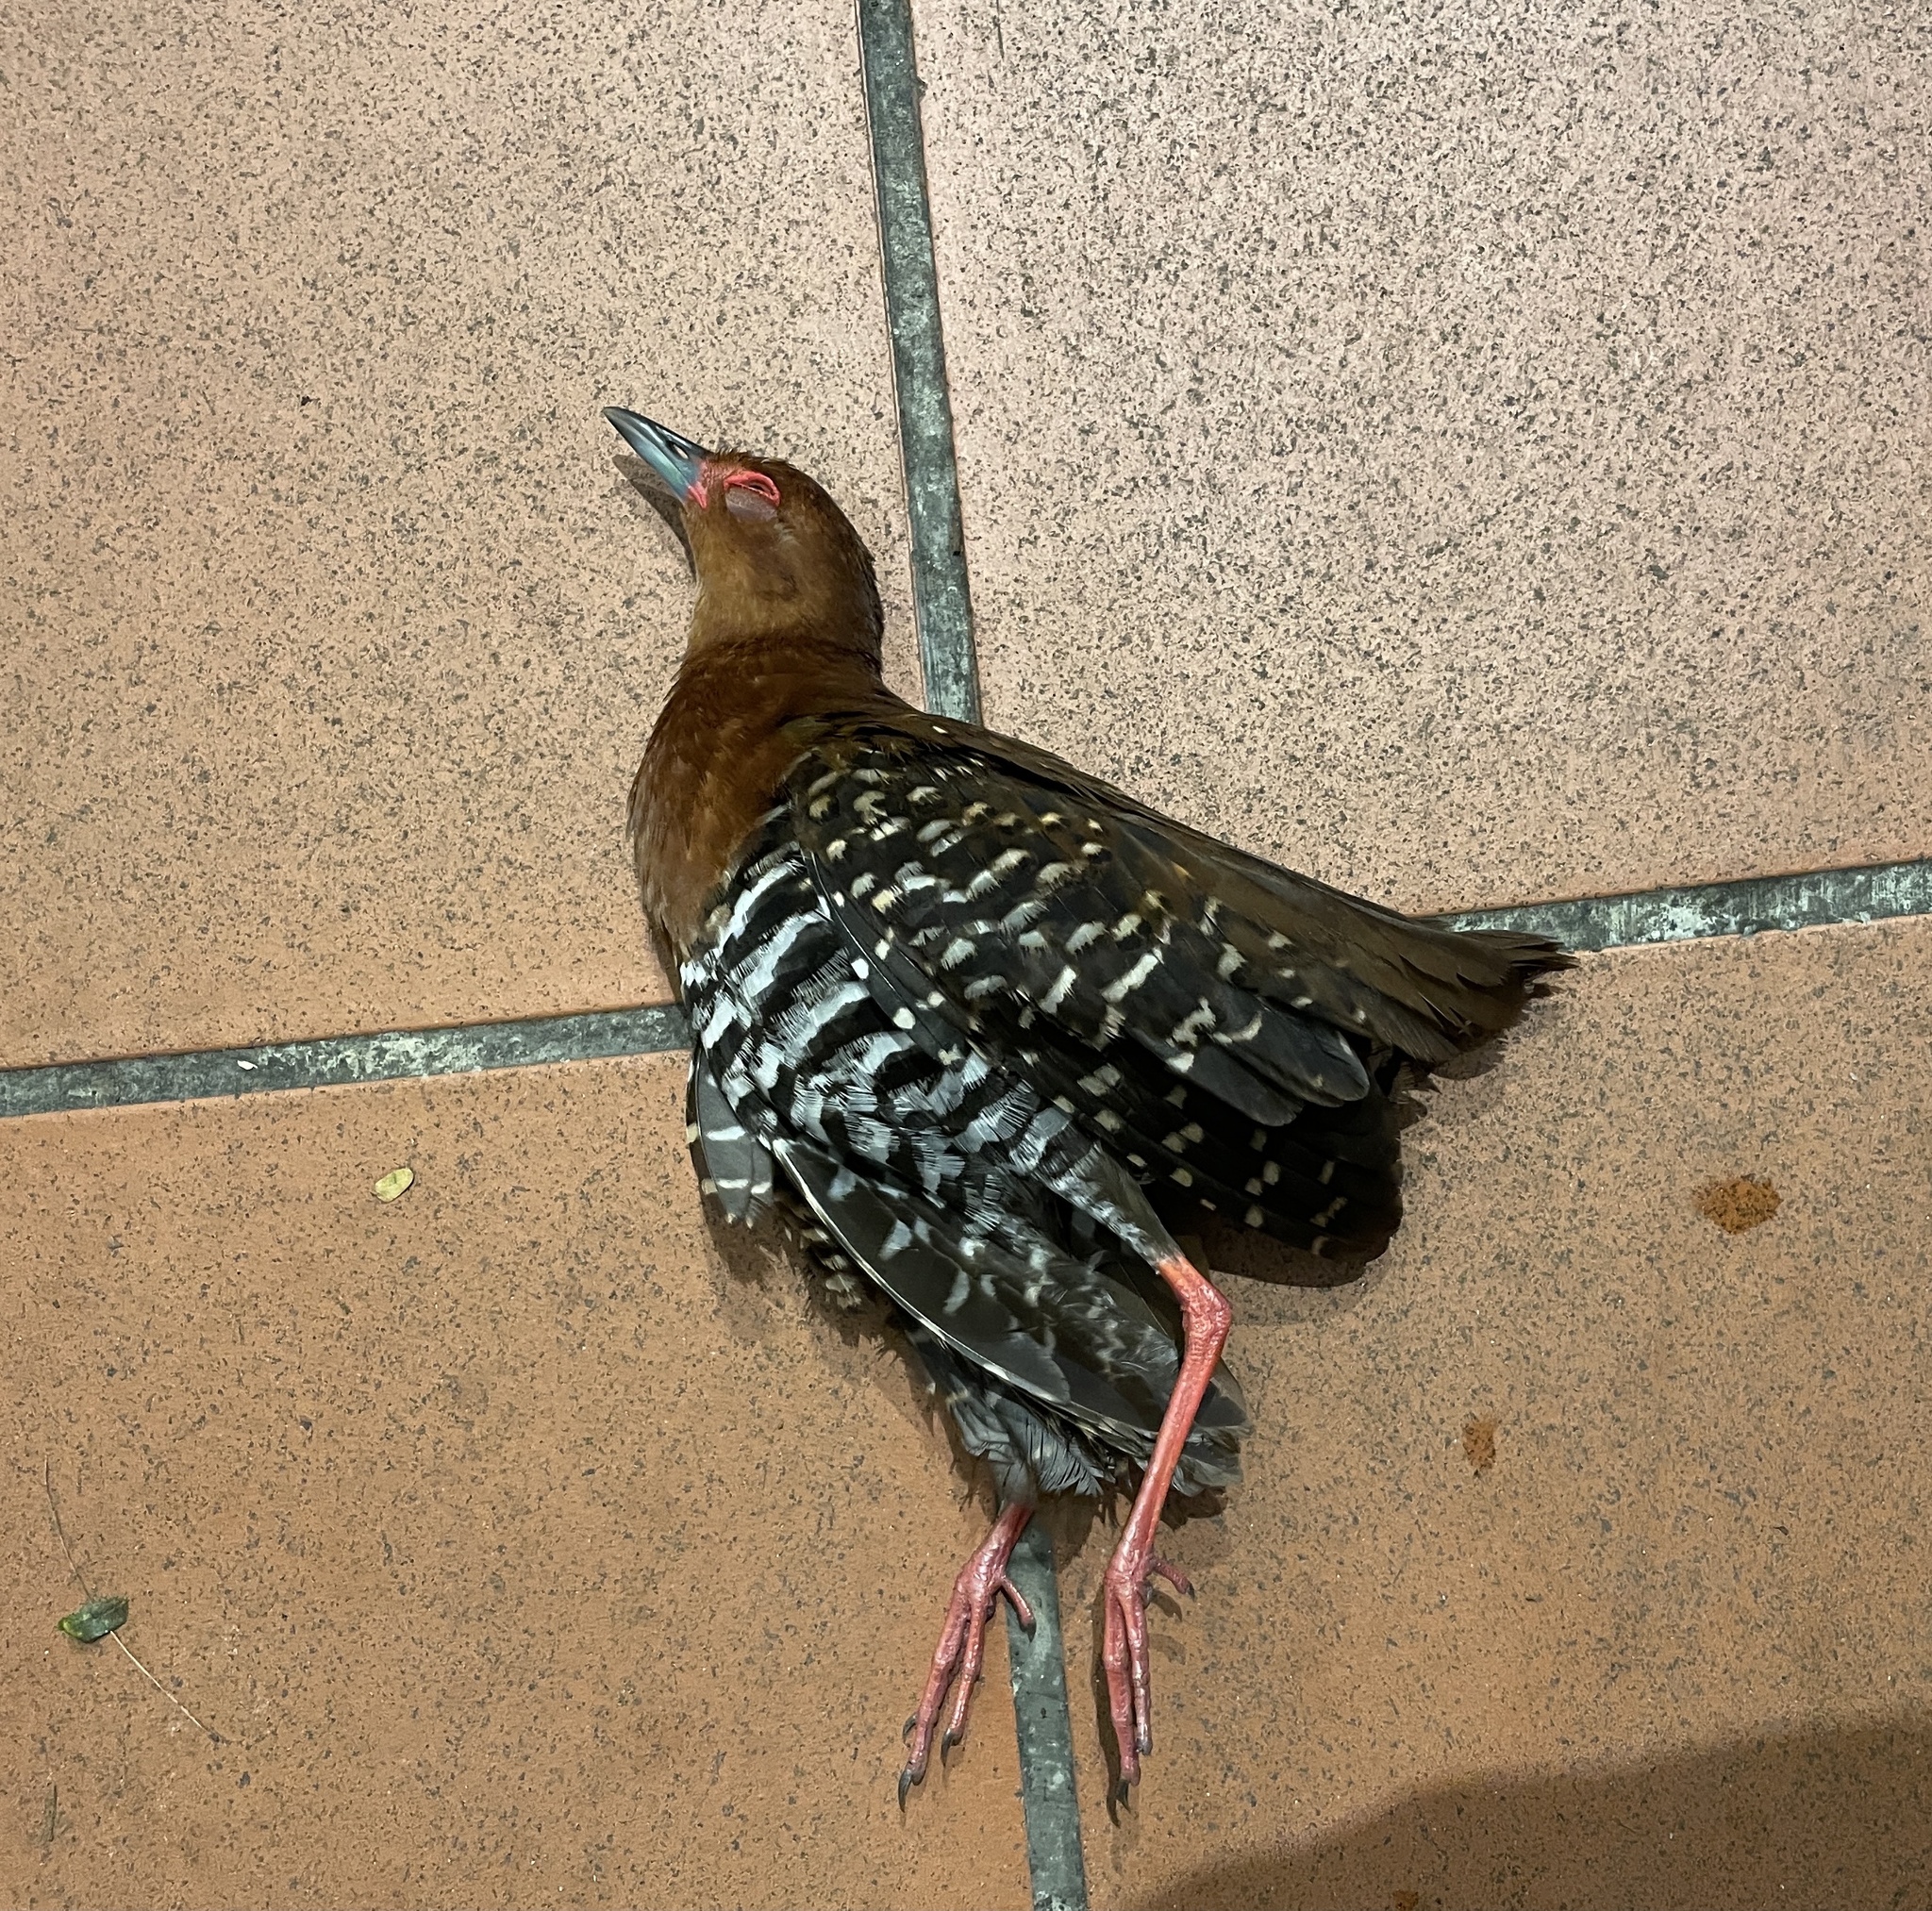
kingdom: Animalia
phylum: Chordata
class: Aves
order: Gruiformes
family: Rallidae
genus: Rallina
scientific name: Rallina fasciata
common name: Red-legged crake
